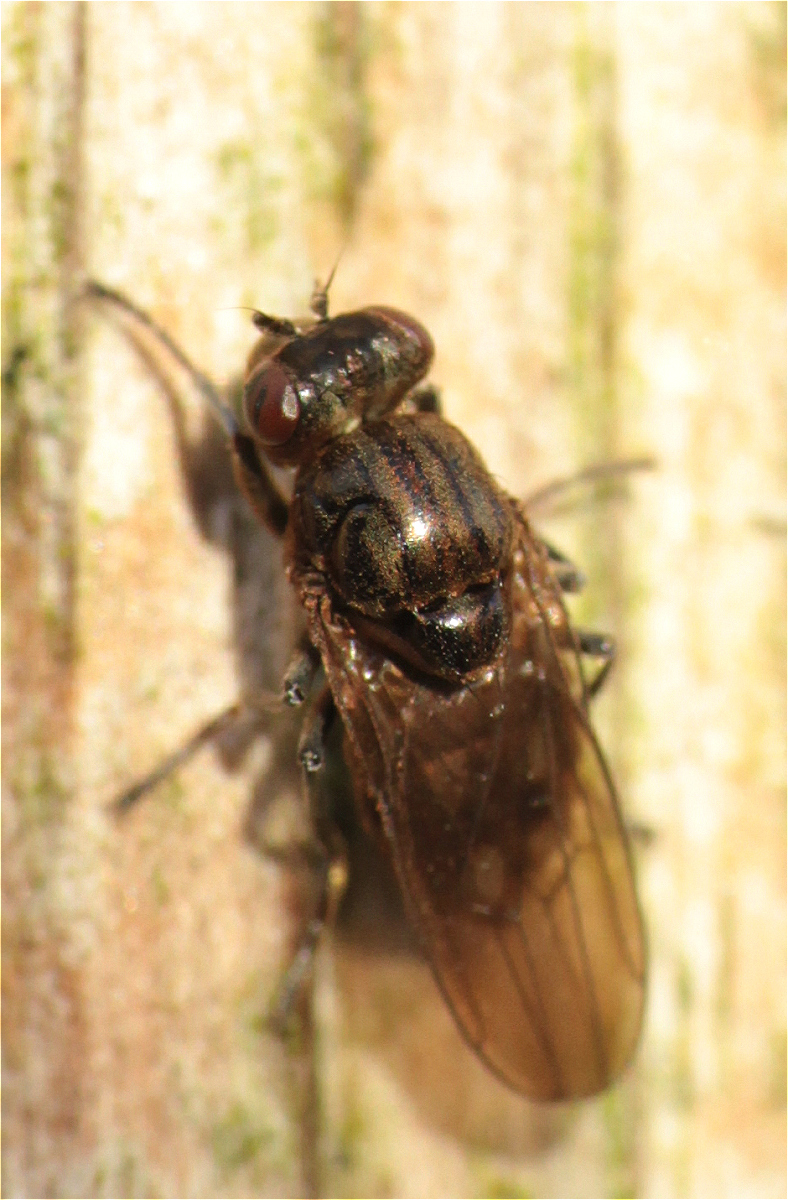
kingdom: Animalia
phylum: Arthropoda
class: Insecta
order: Diptera
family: Ephydridae
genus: Parydra
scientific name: Parydra aquila
